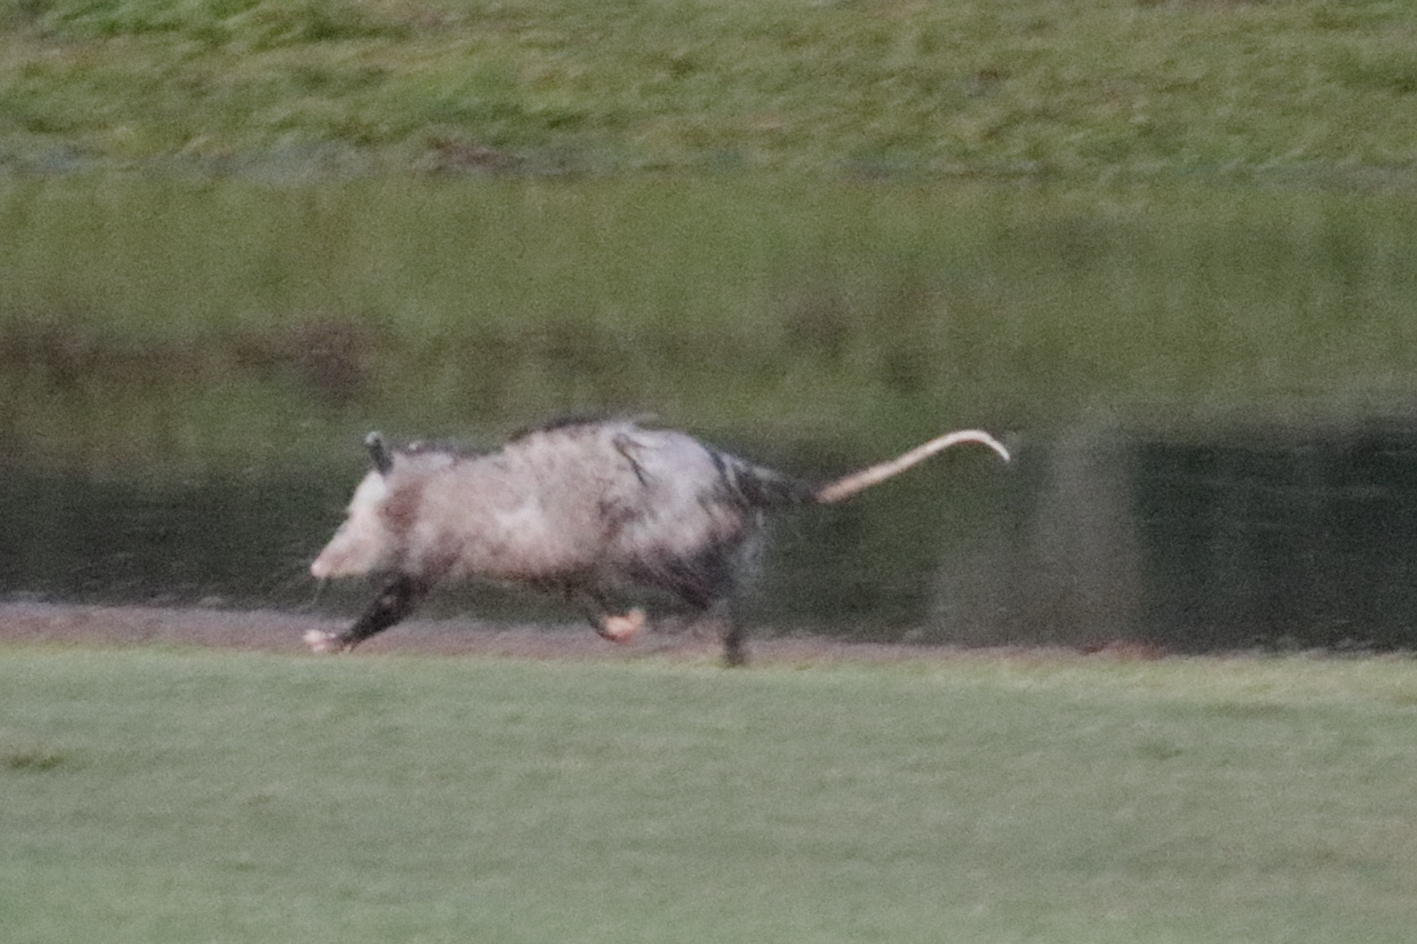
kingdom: Animalia
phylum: Chordata
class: Mammalia
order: Didelphimorphia
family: Didelphidae
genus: Didelphis
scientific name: Didelphis virginiana
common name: Virginia opossum
